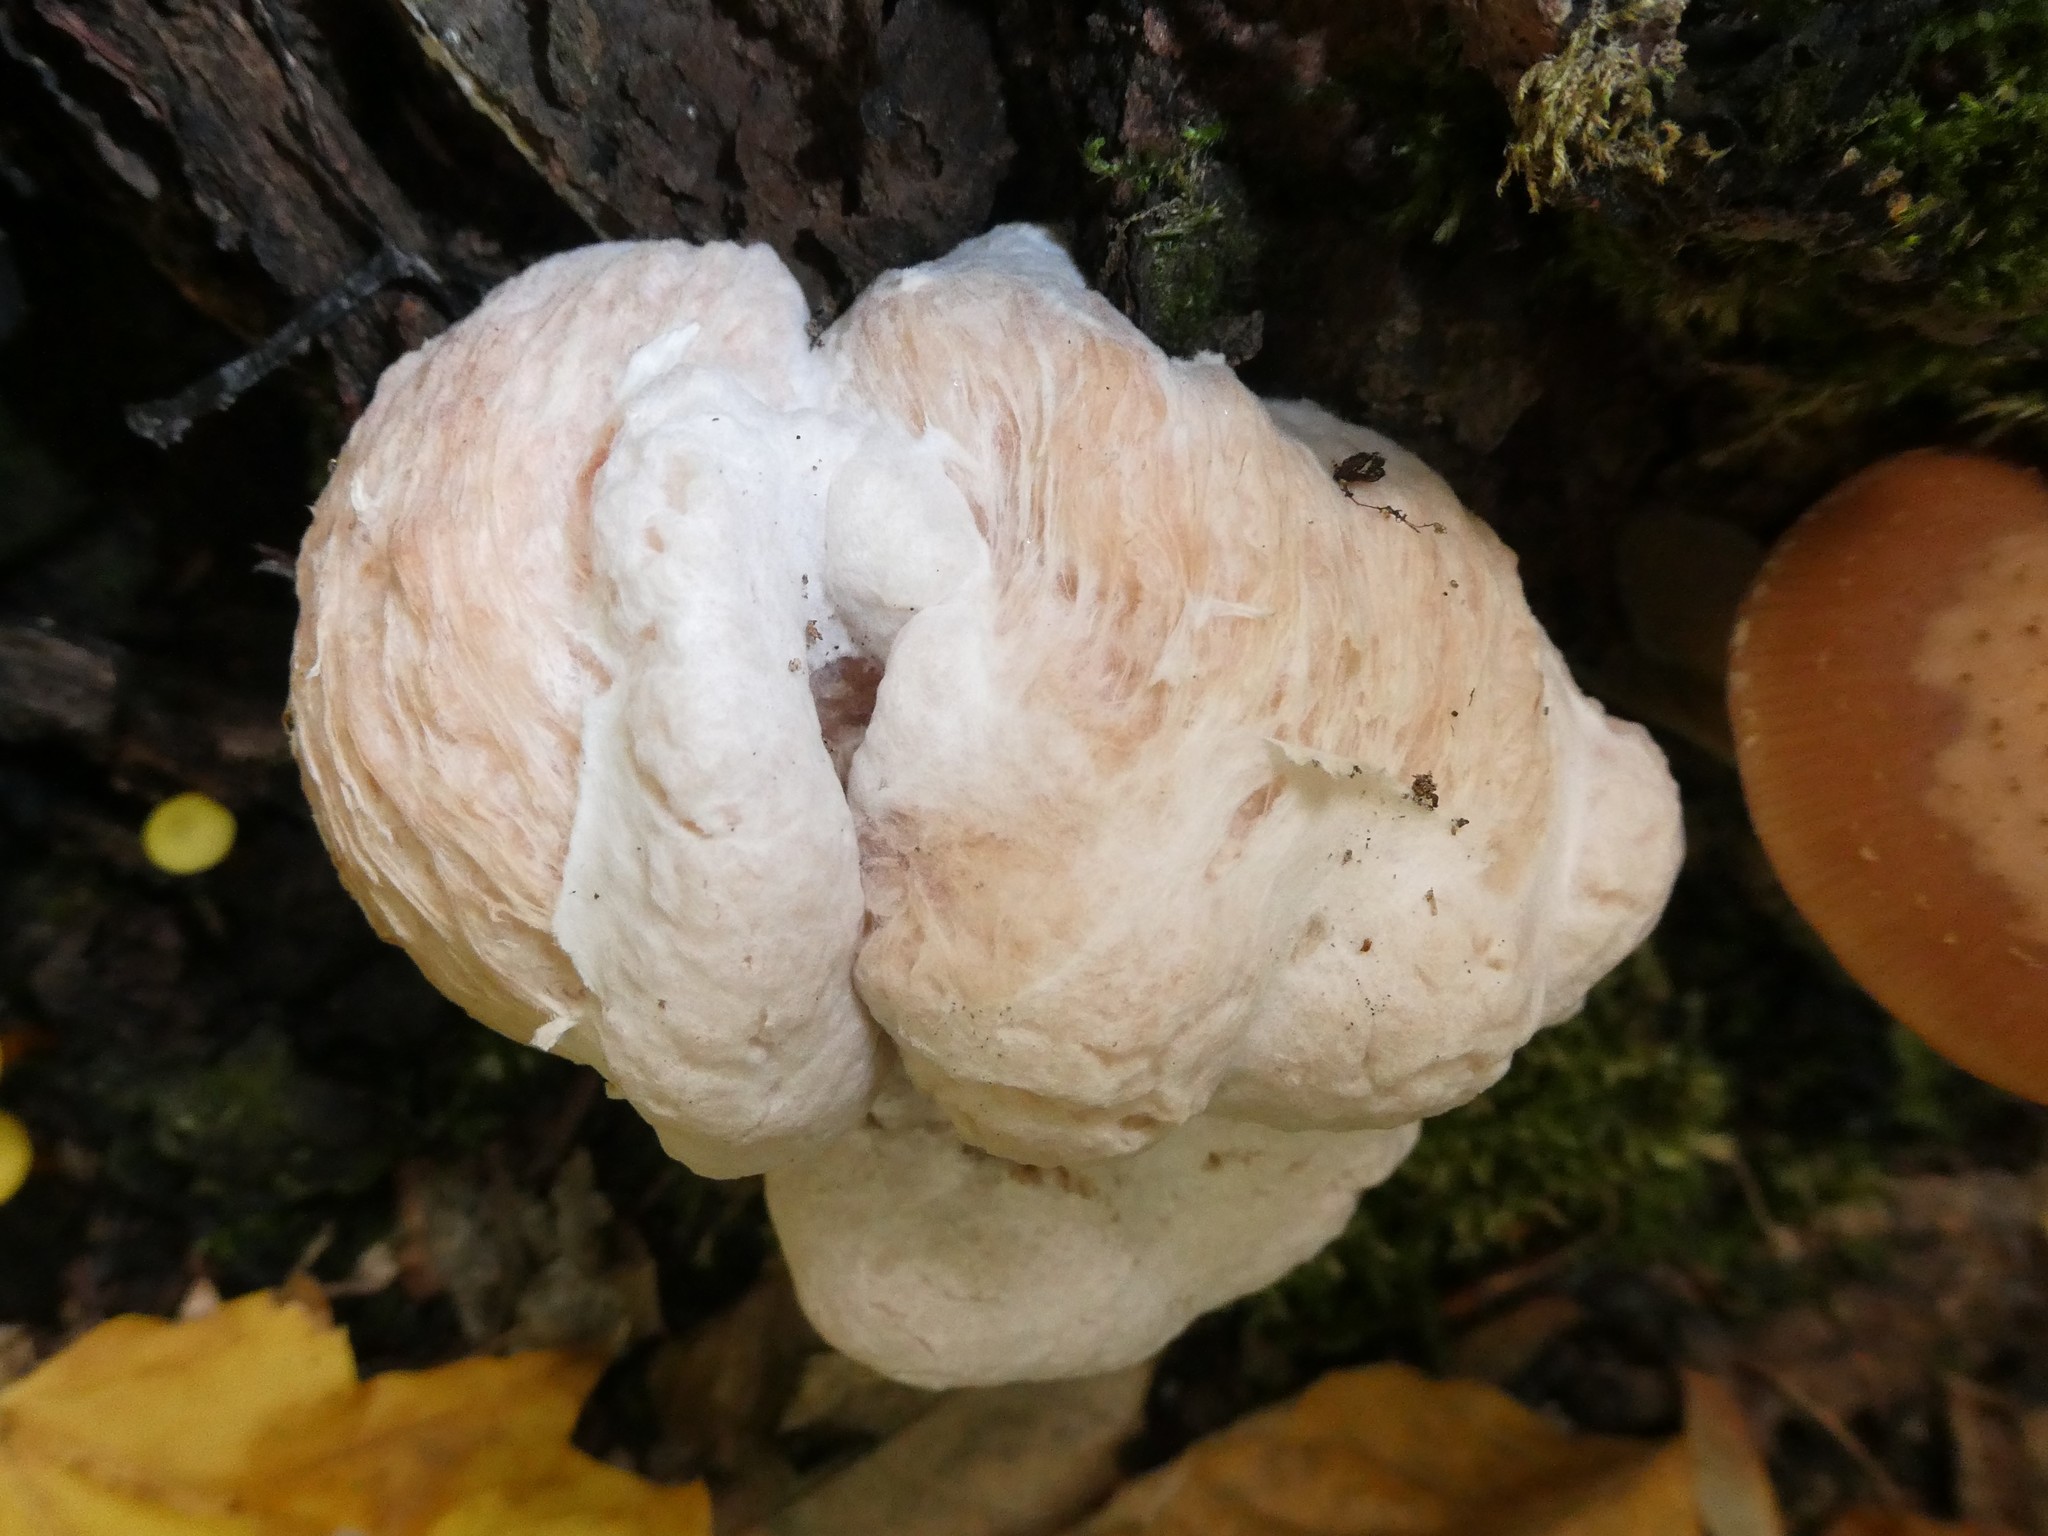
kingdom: Fungi
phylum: Basidiomycota
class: Agaricomycetes
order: Agaricales
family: Entolomataceae
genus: Entoloma
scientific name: Entoloma abortivum
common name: Aborted entoloma
